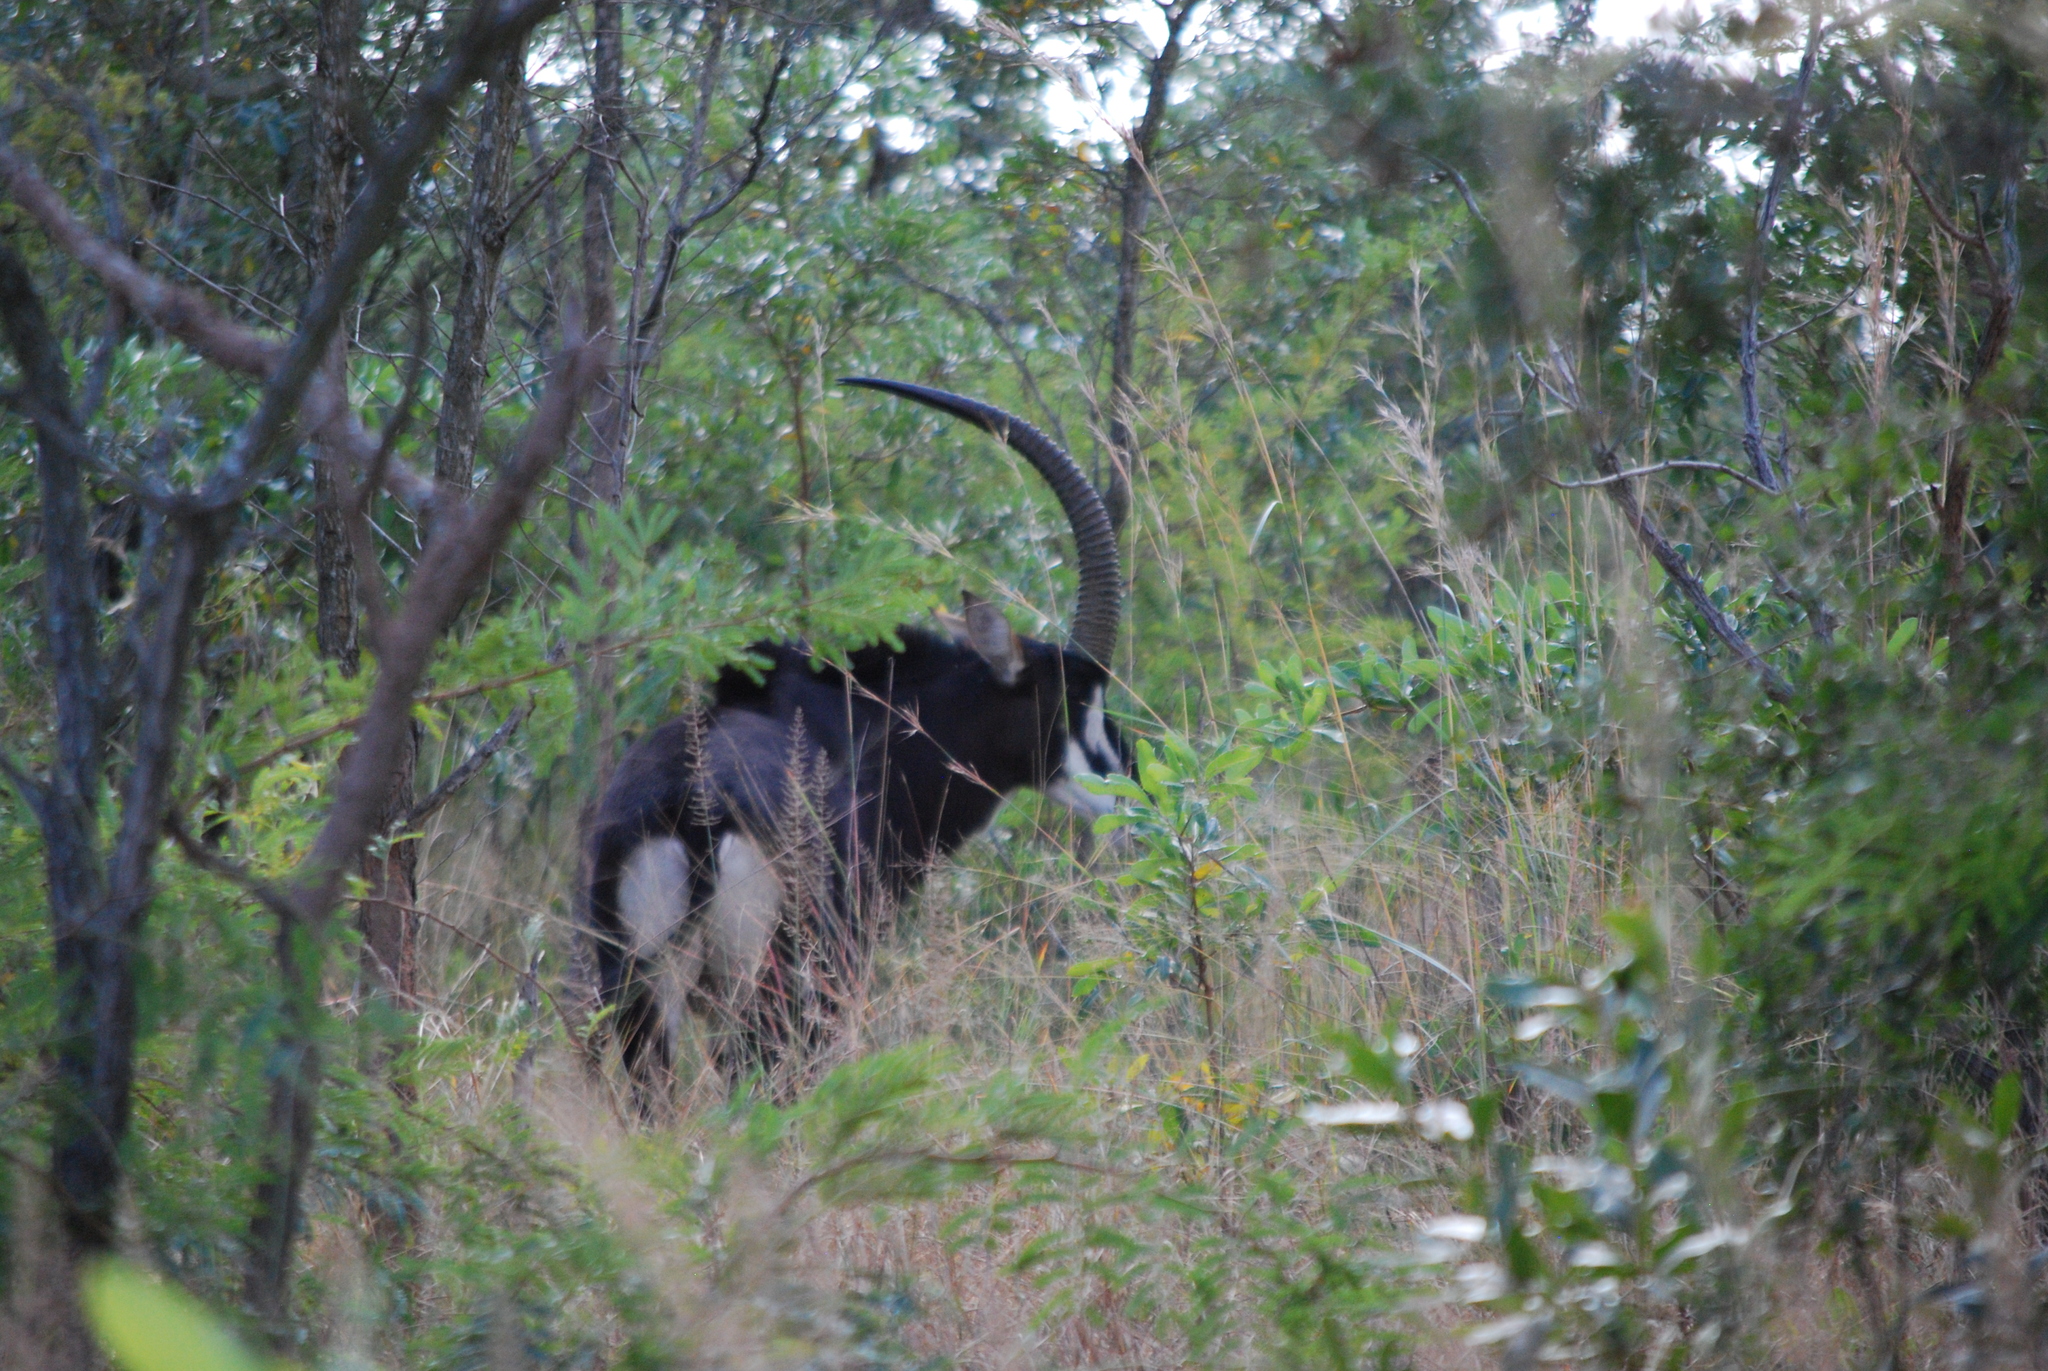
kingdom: Animalia
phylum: Chordata
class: Mammalia
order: Artiodactyla
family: Bovidae
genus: Hippotragus
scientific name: Hippotragus niger
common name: Sable antelope
